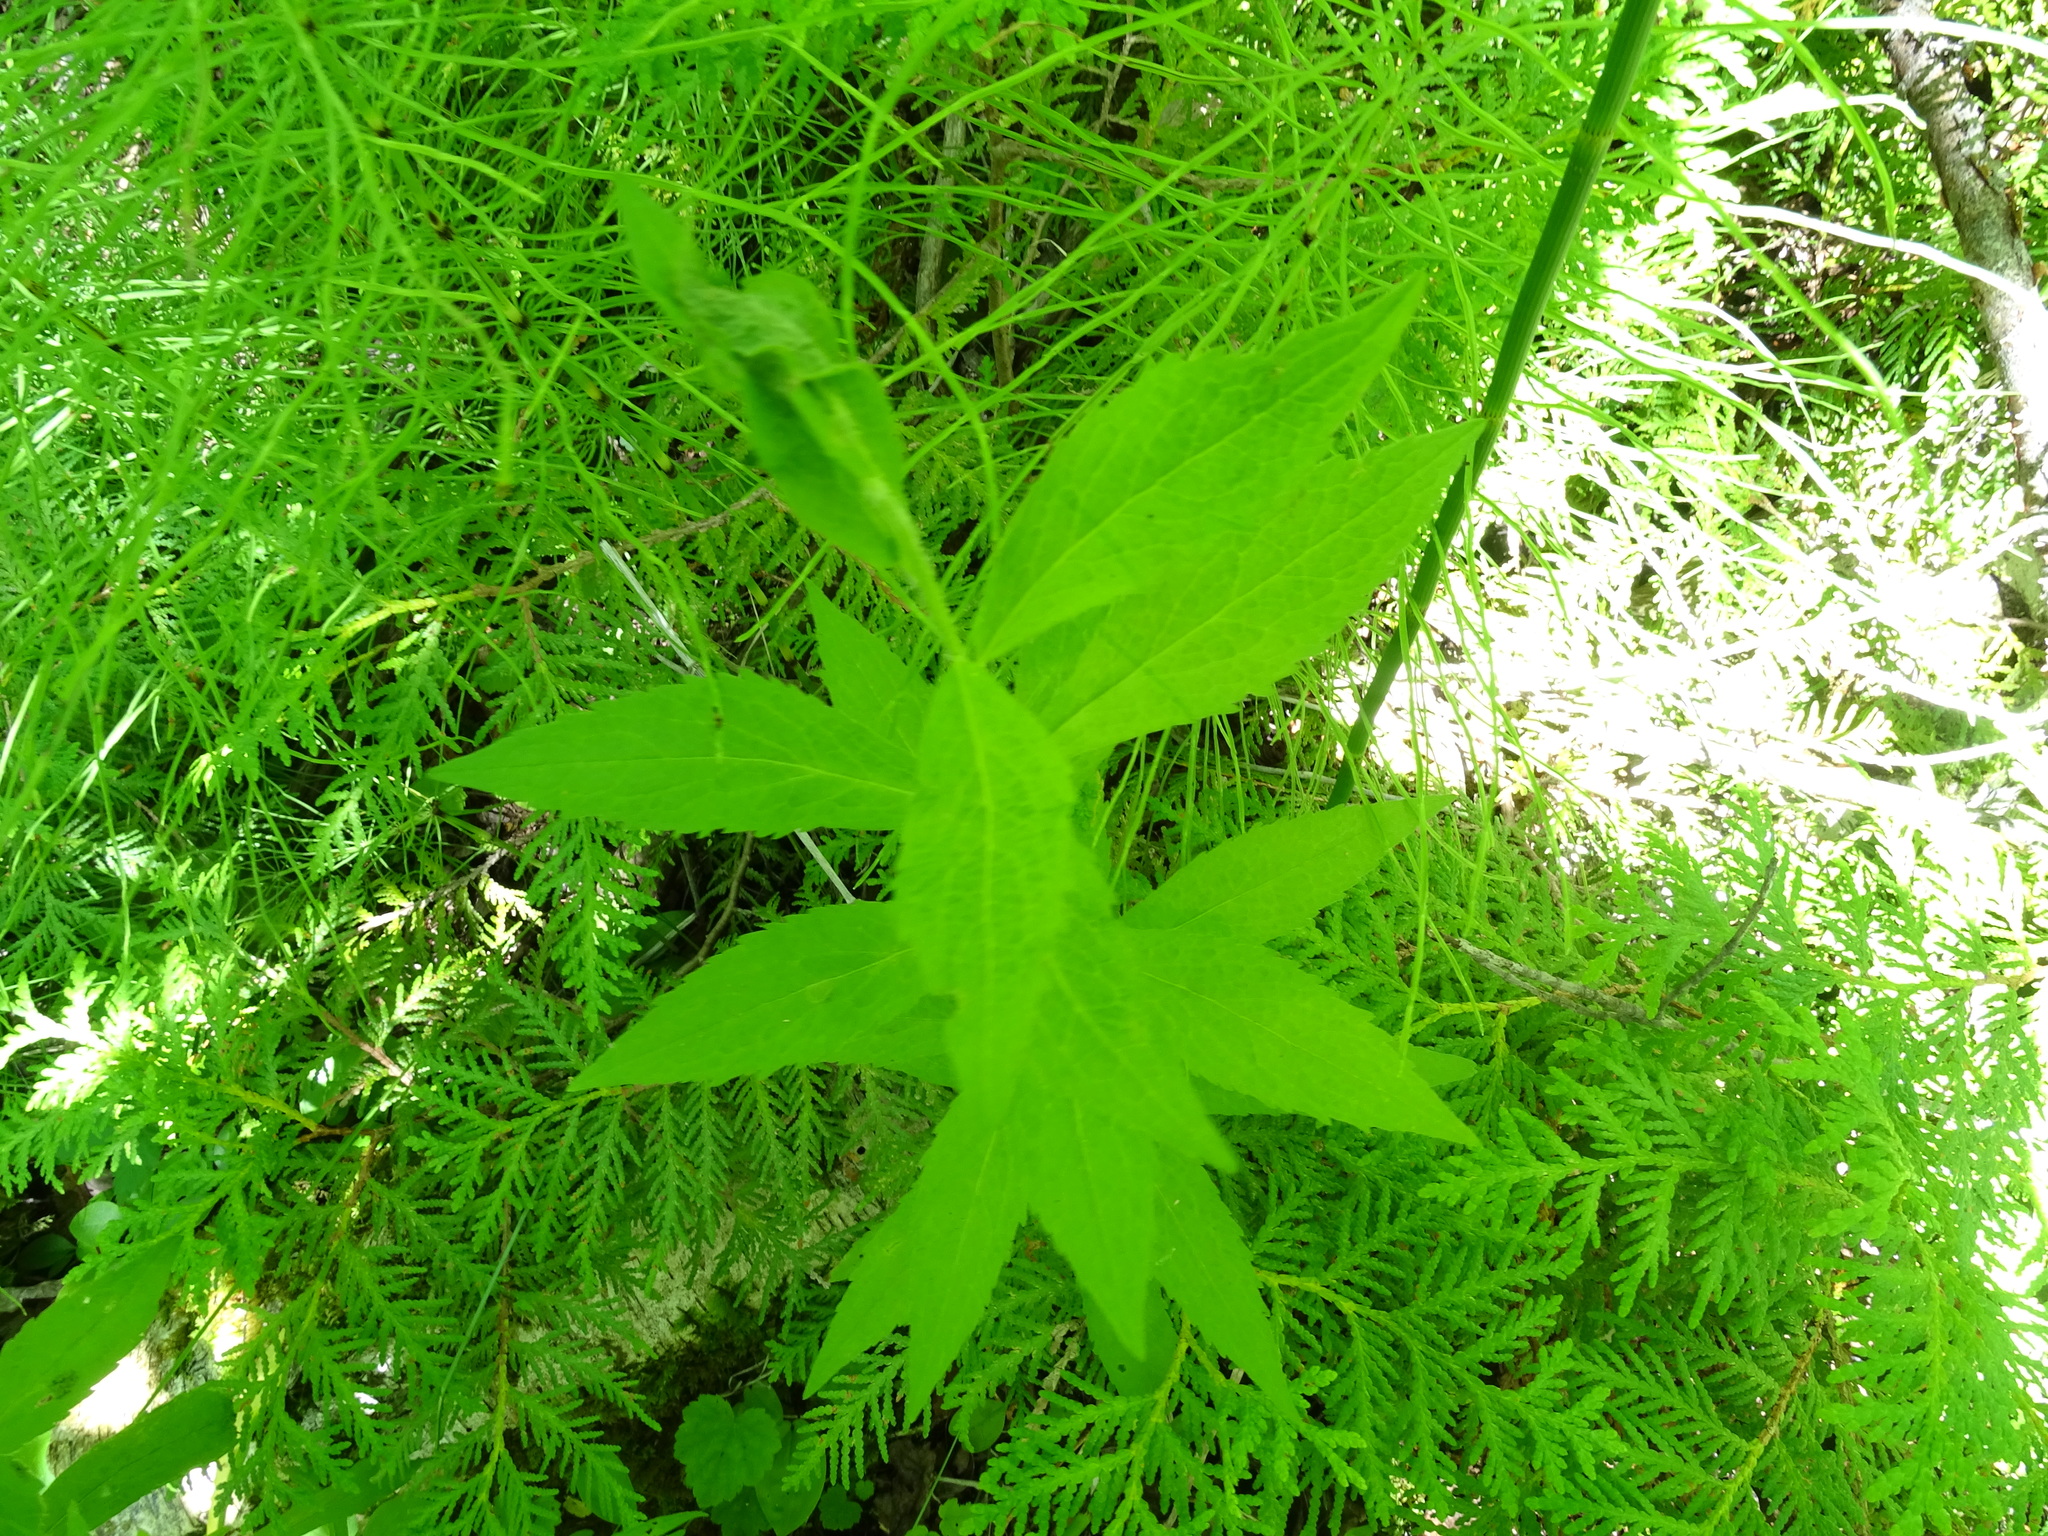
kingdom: Plantae
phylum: Tracheophyta
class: Magnoliopsida
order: Asterales
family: Asteraceae
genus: Solidago
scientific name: Solidago rugosa
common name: Rough-stemmed goldenrod
